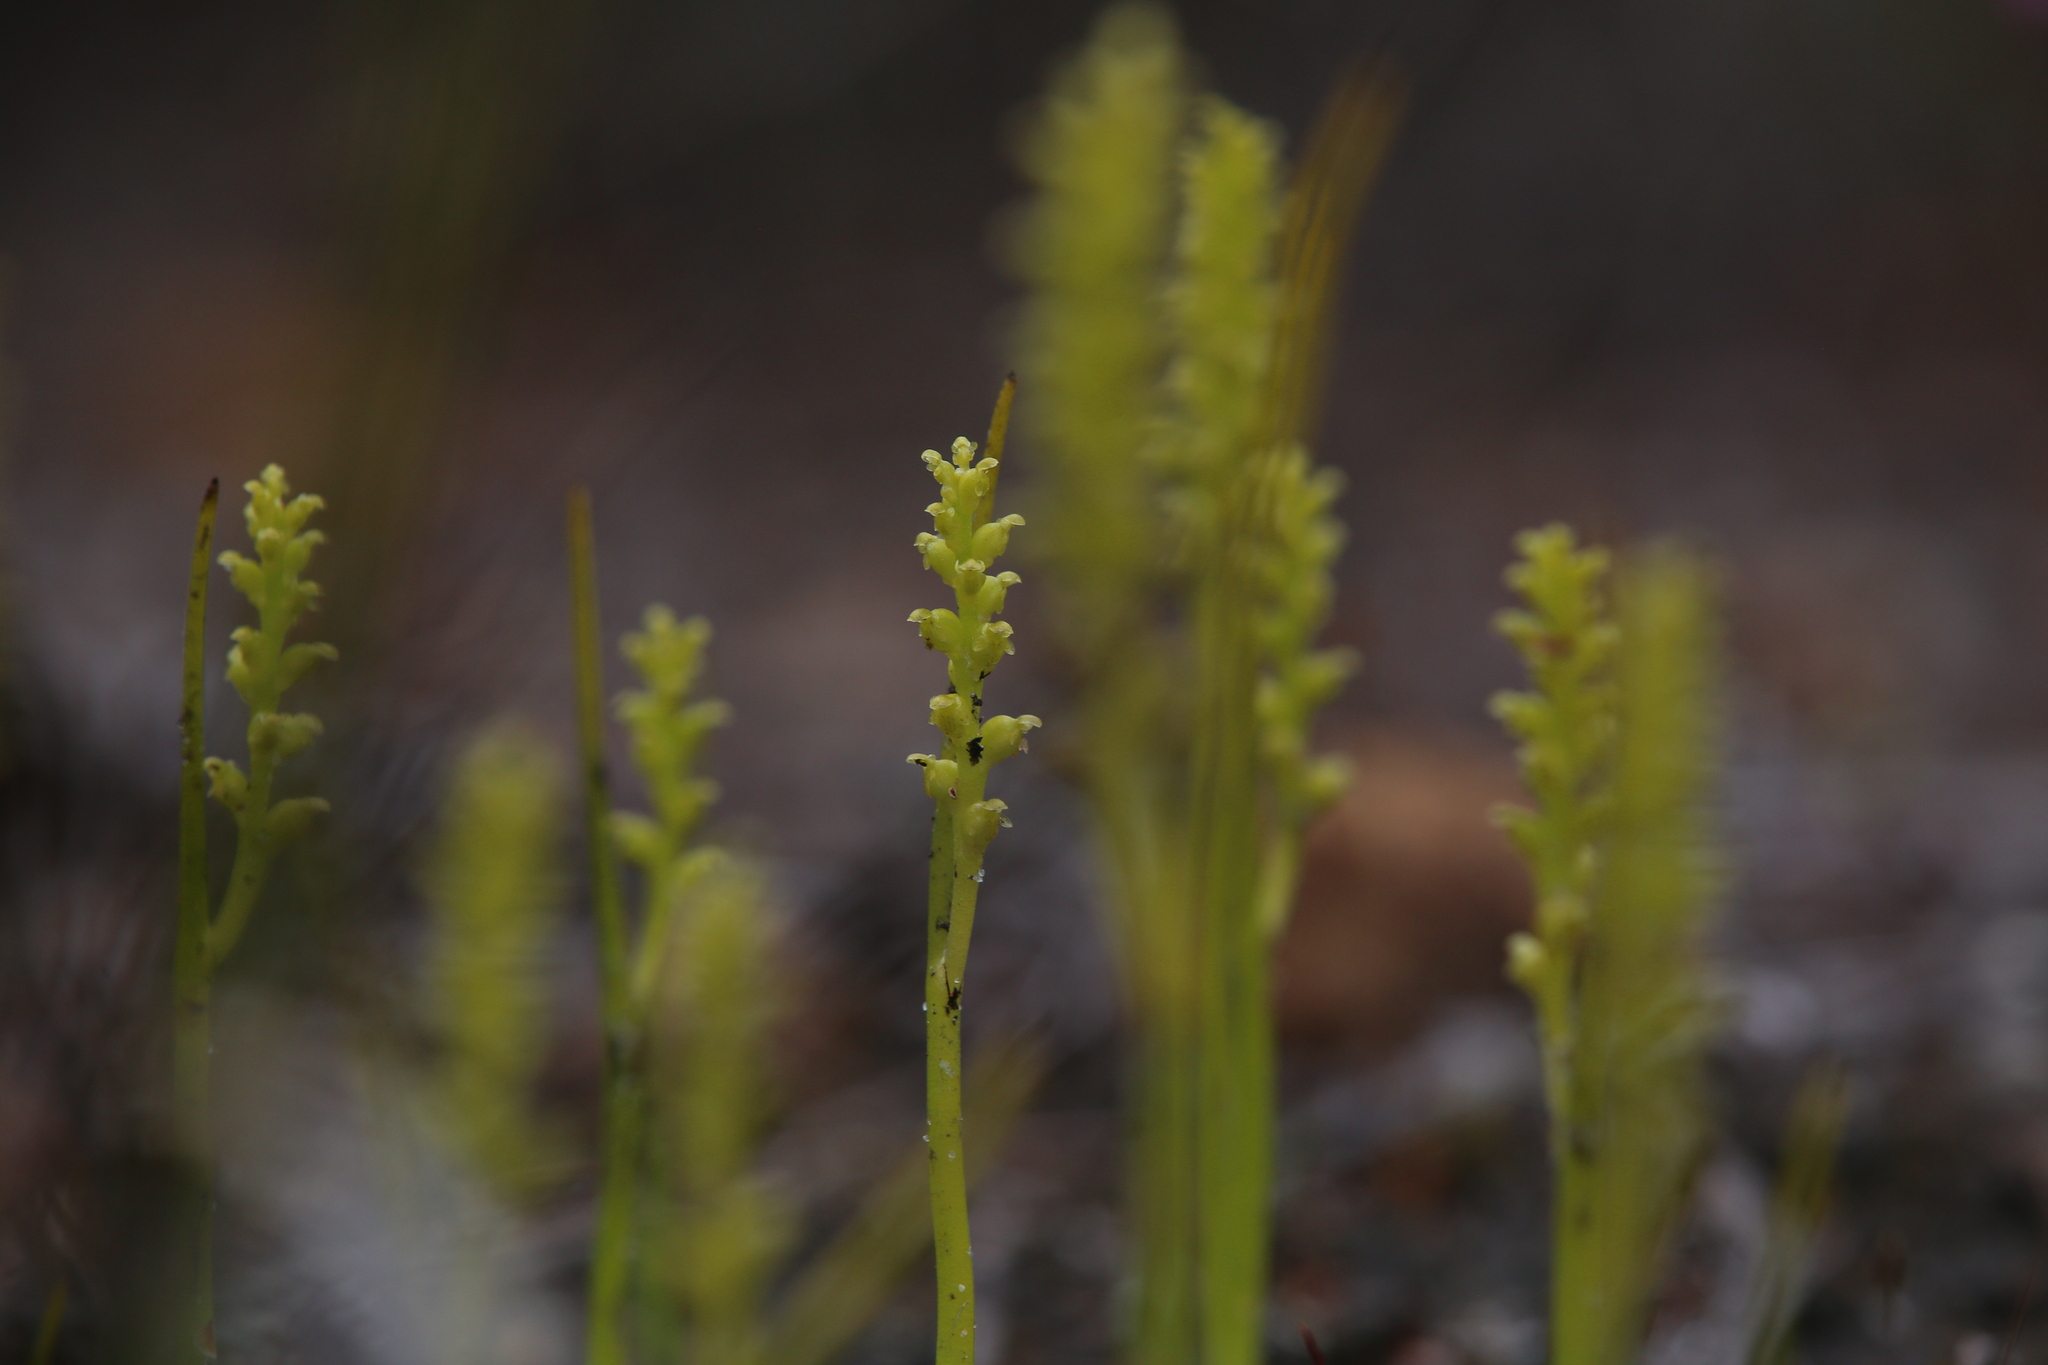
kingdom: Plantae
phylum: Tracheophyta
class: Liliopsida
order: Asparagales
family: Orchidaceae
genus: Microtis
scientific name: Microtis atrata
